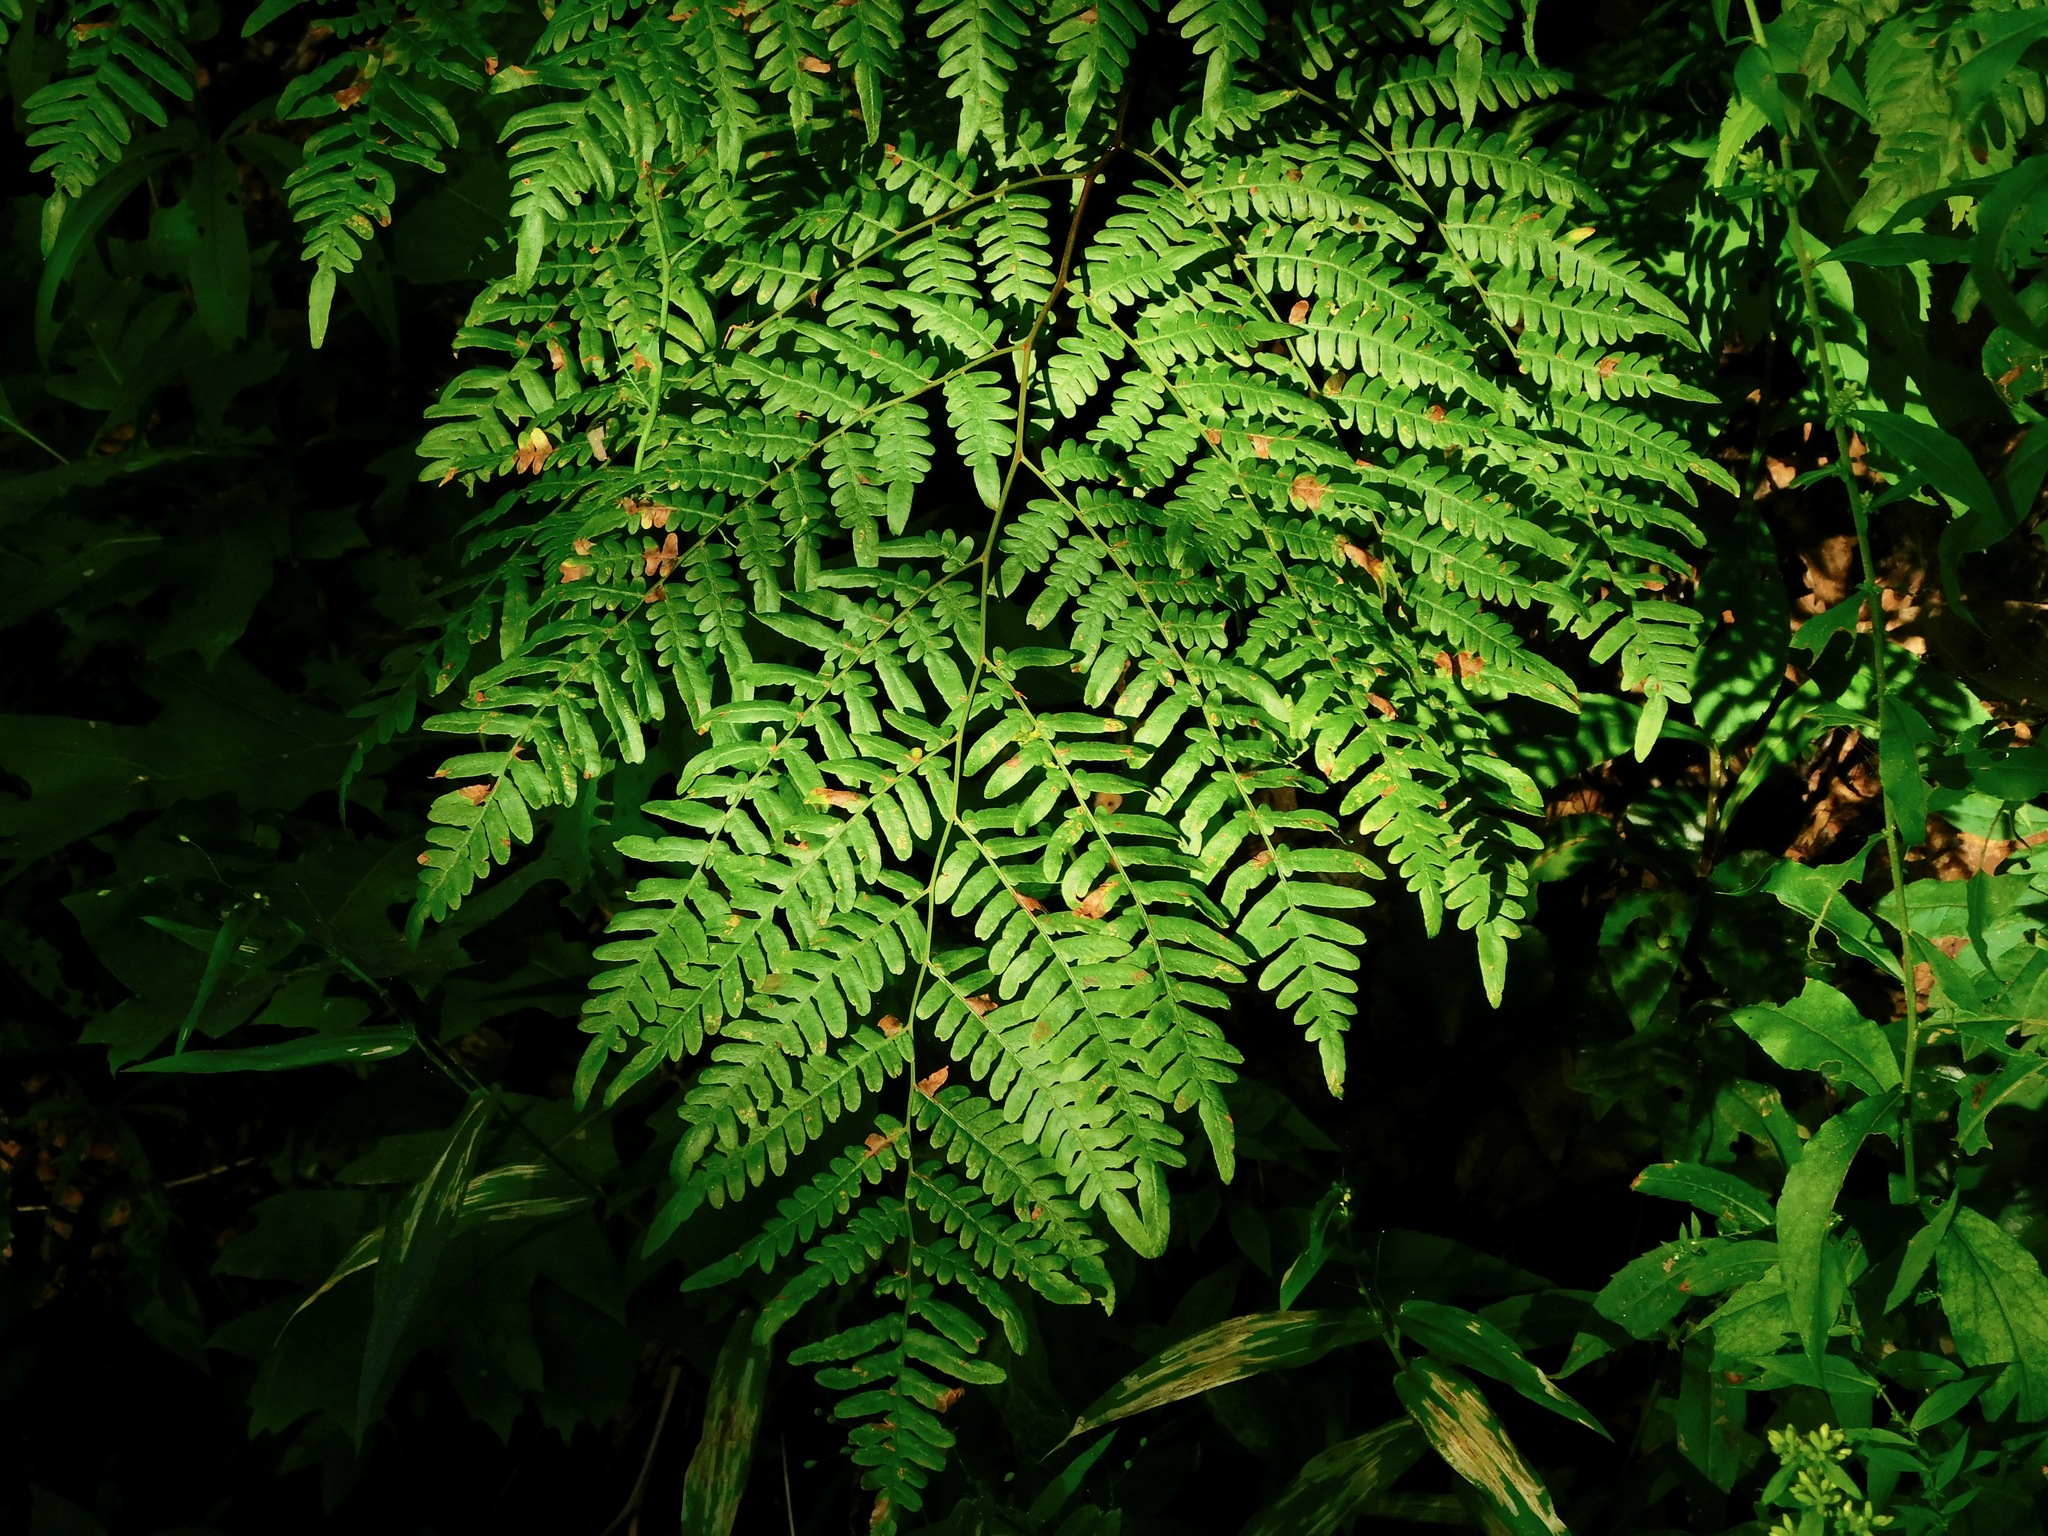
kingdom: Plantae
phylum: Tracheophyta
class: Polypodiopsida
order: Polypodiales
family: Dennstaedtiaceae
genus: Pteridium
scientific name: Pteridium aquilinum
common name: Bracken
